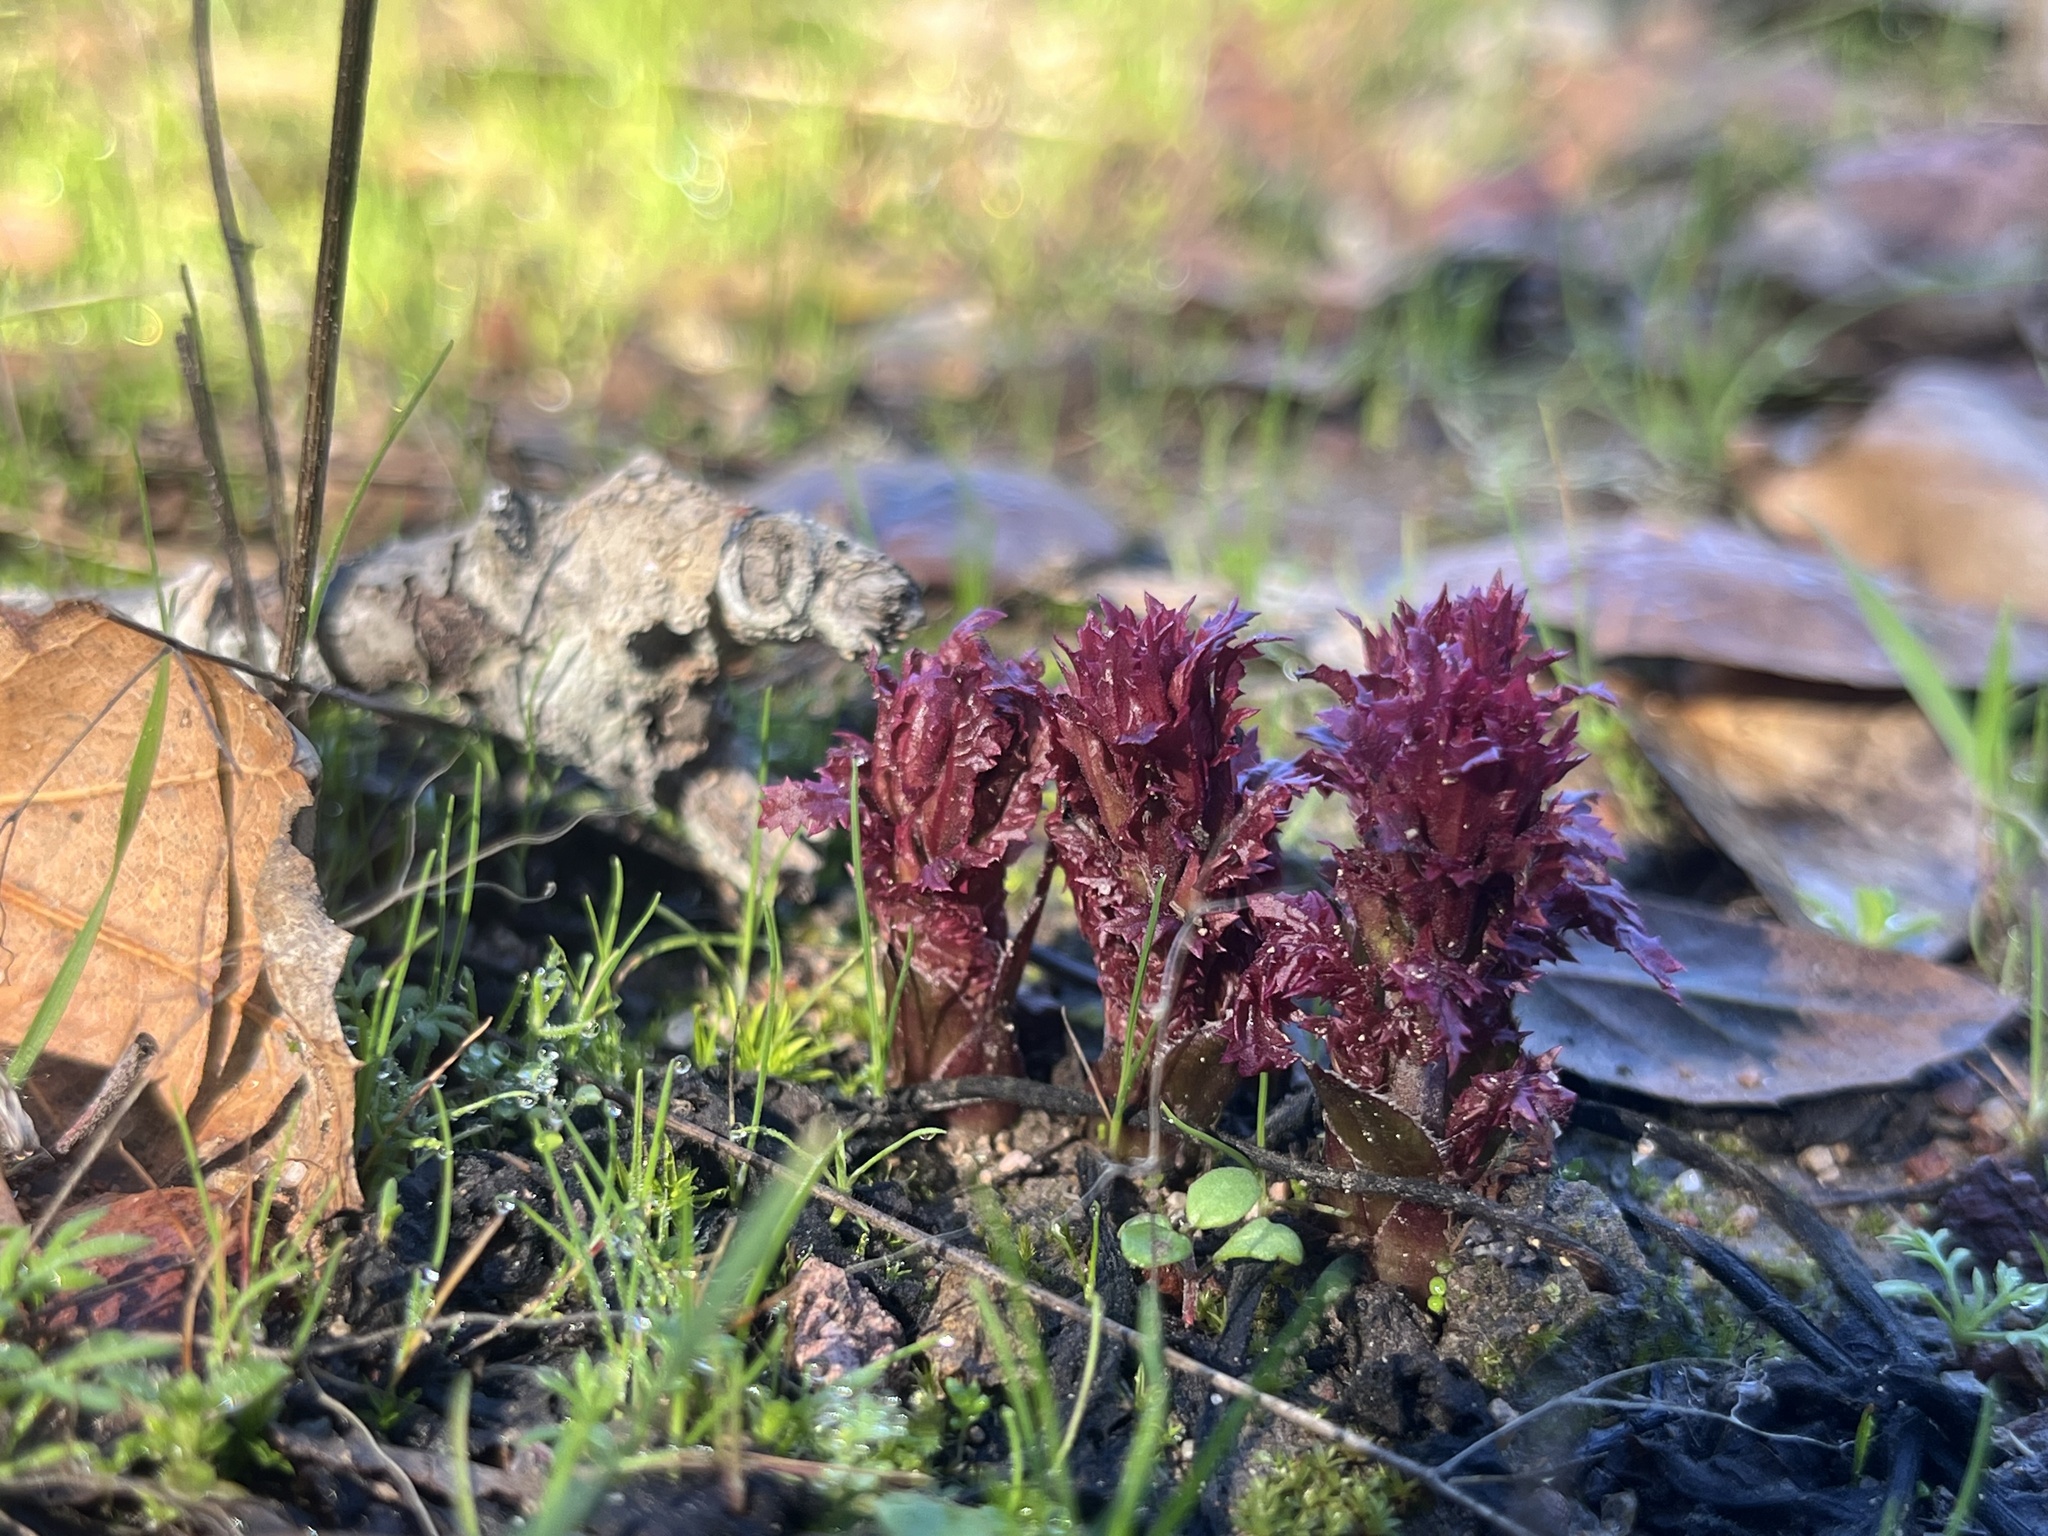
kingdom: Plantae
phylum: Tracheophyta
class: Magnoliopsida
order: Lamiales
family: Orobanchaceae
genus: Pedicularis
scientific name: Pedicularis densiflora
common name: Indian warrior
